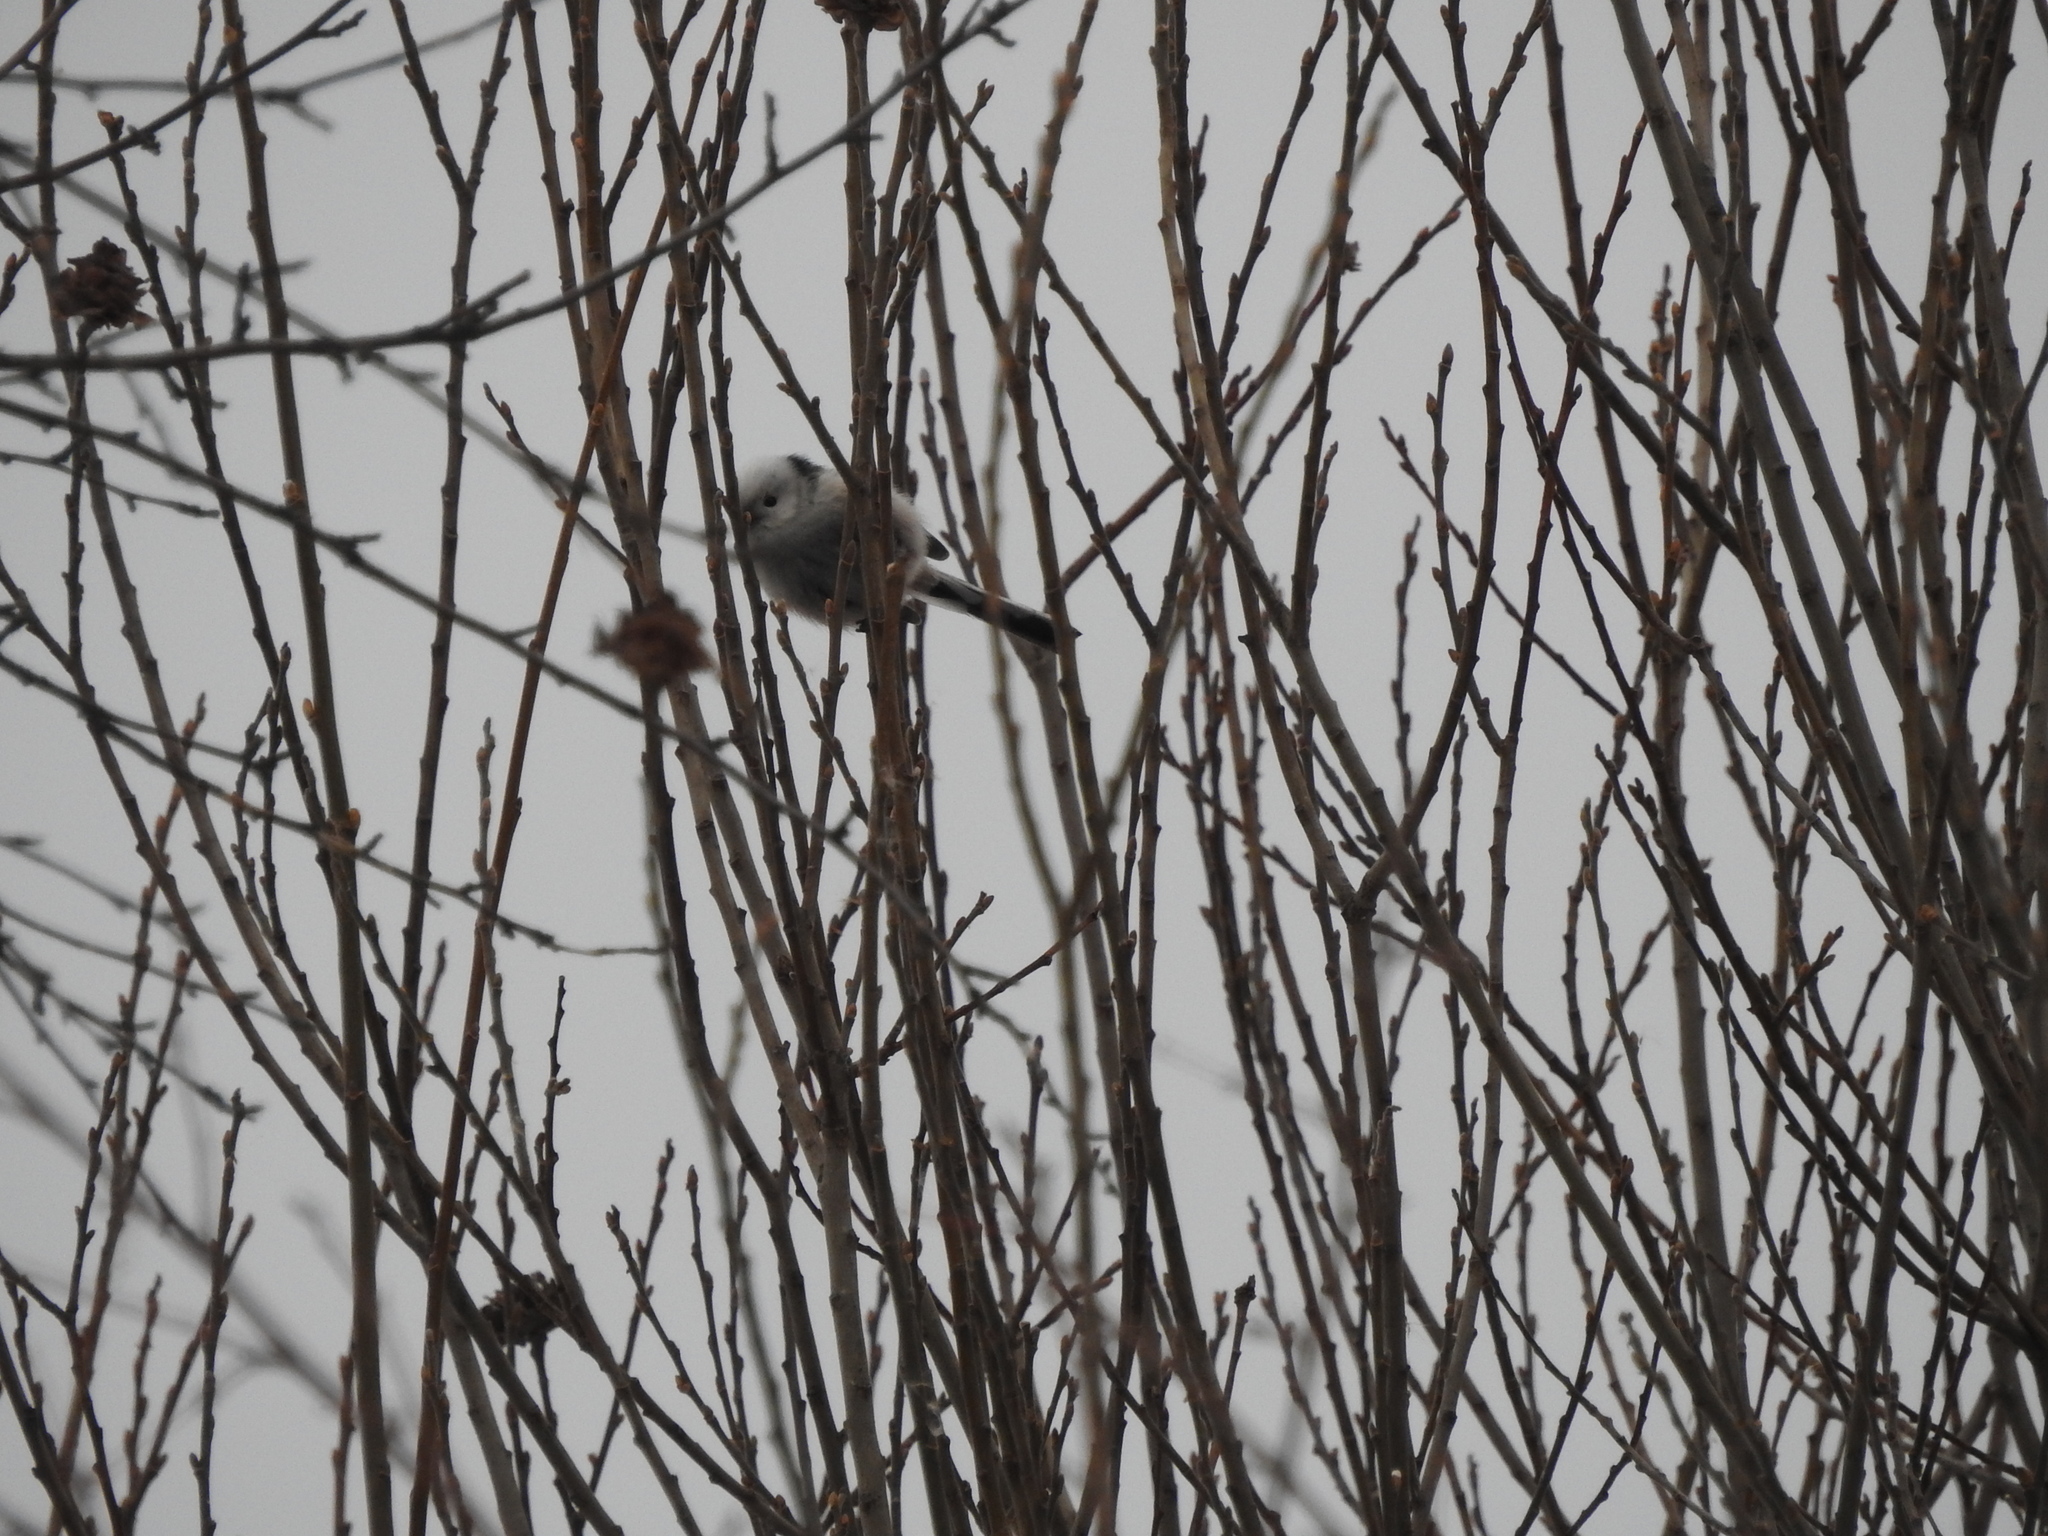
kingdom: Animalia
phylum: Chordata
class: Aves
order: Passeriformes
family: Aegithalidae
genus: Aegithalos
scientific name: Aegithalos caudatus
